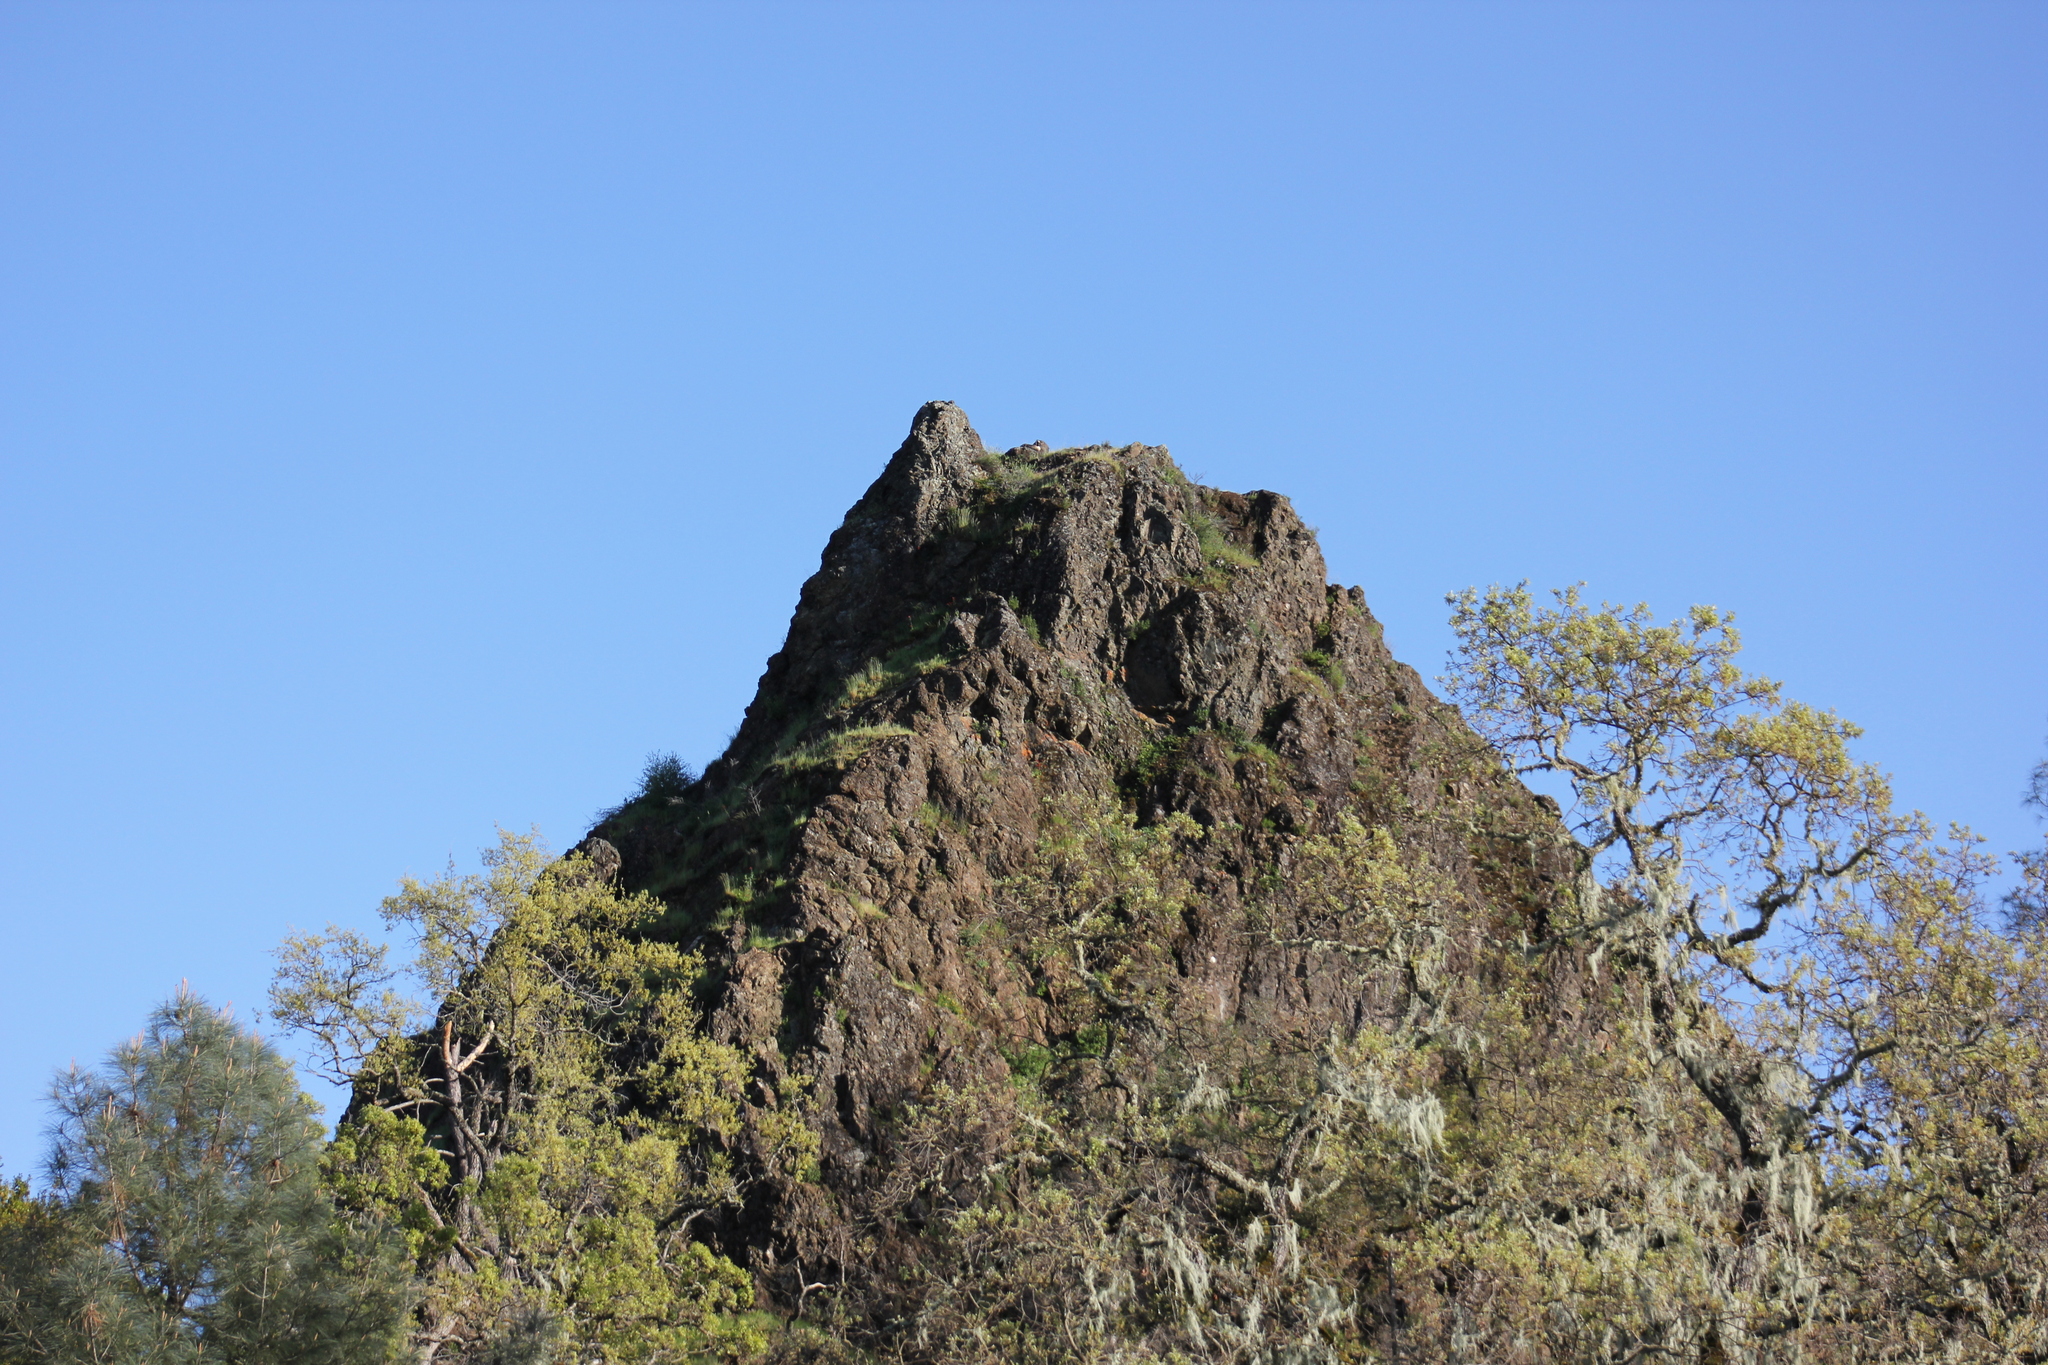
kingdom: Animalia
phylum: Chordata
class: Aves
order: Anseriformes
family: Anatidae
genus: Branta
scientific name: Branta canadensis
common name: Canada goose
